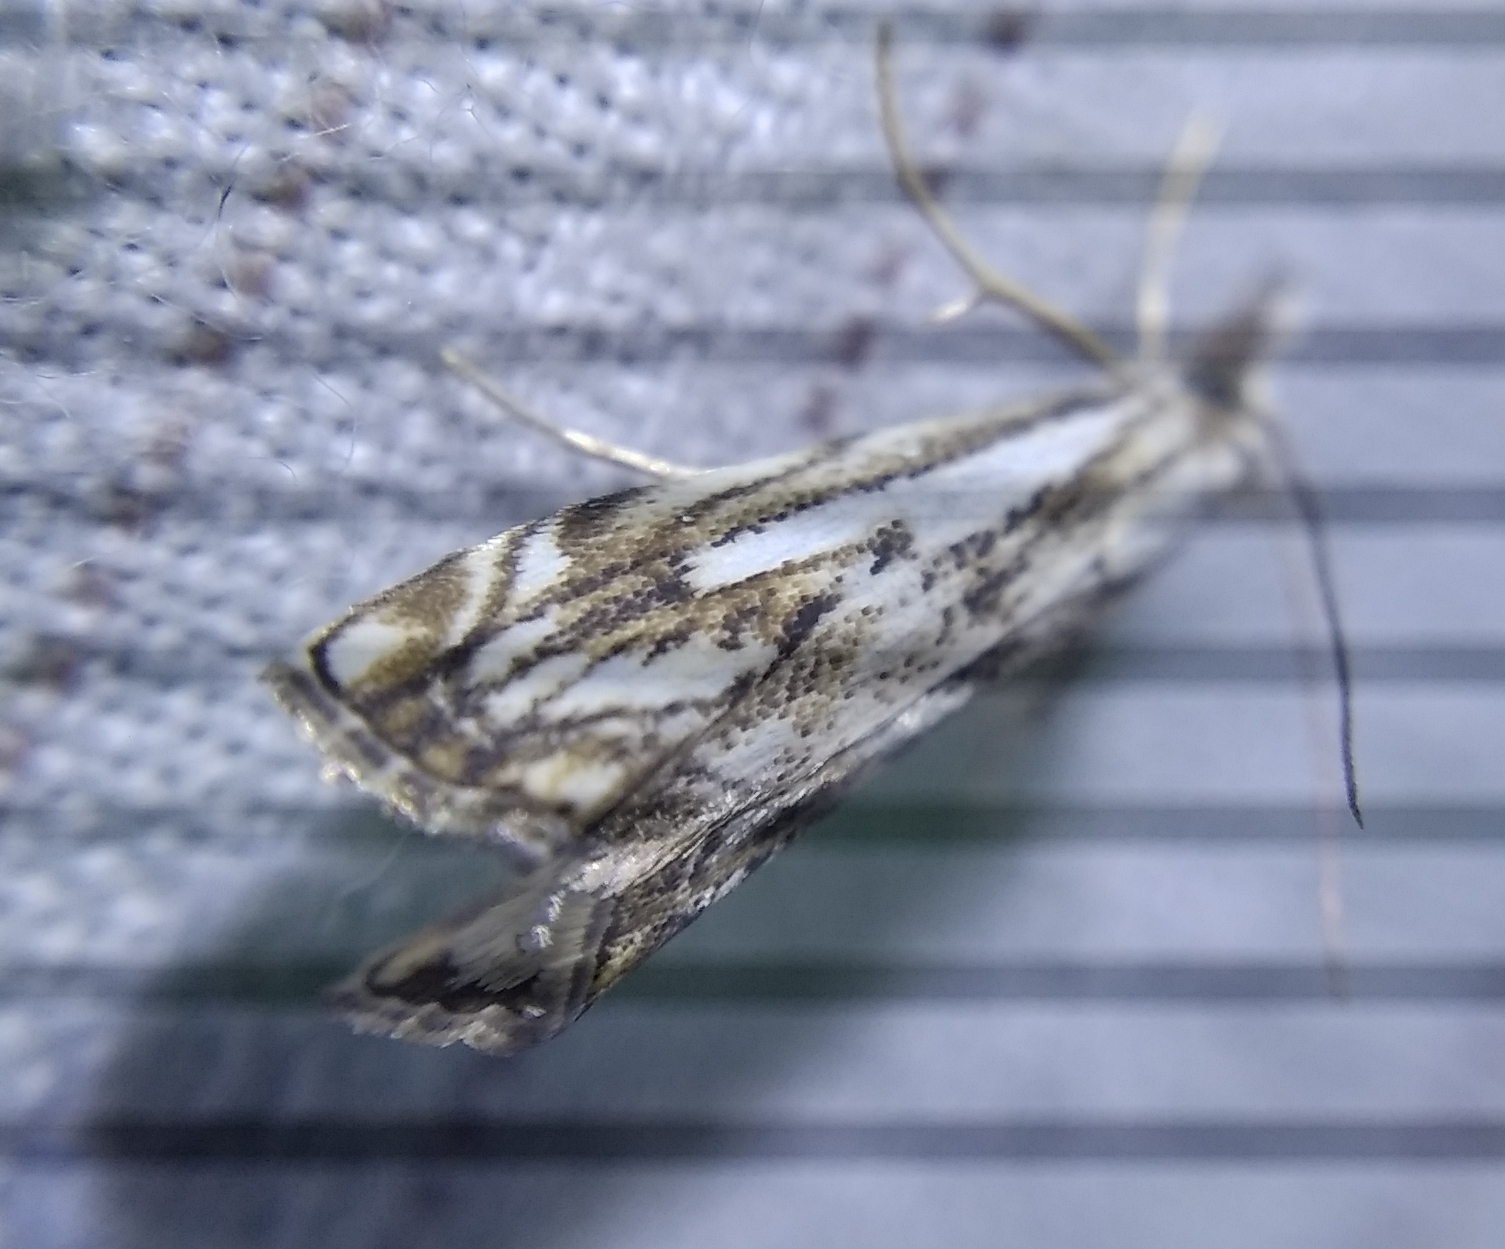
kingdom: Animalia
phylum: Arthropoda
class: Insecta
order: Lepidoptera
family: Crambidae
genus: Catoptria
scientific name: Catoptria falsella
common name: Chequered grass-veneer
